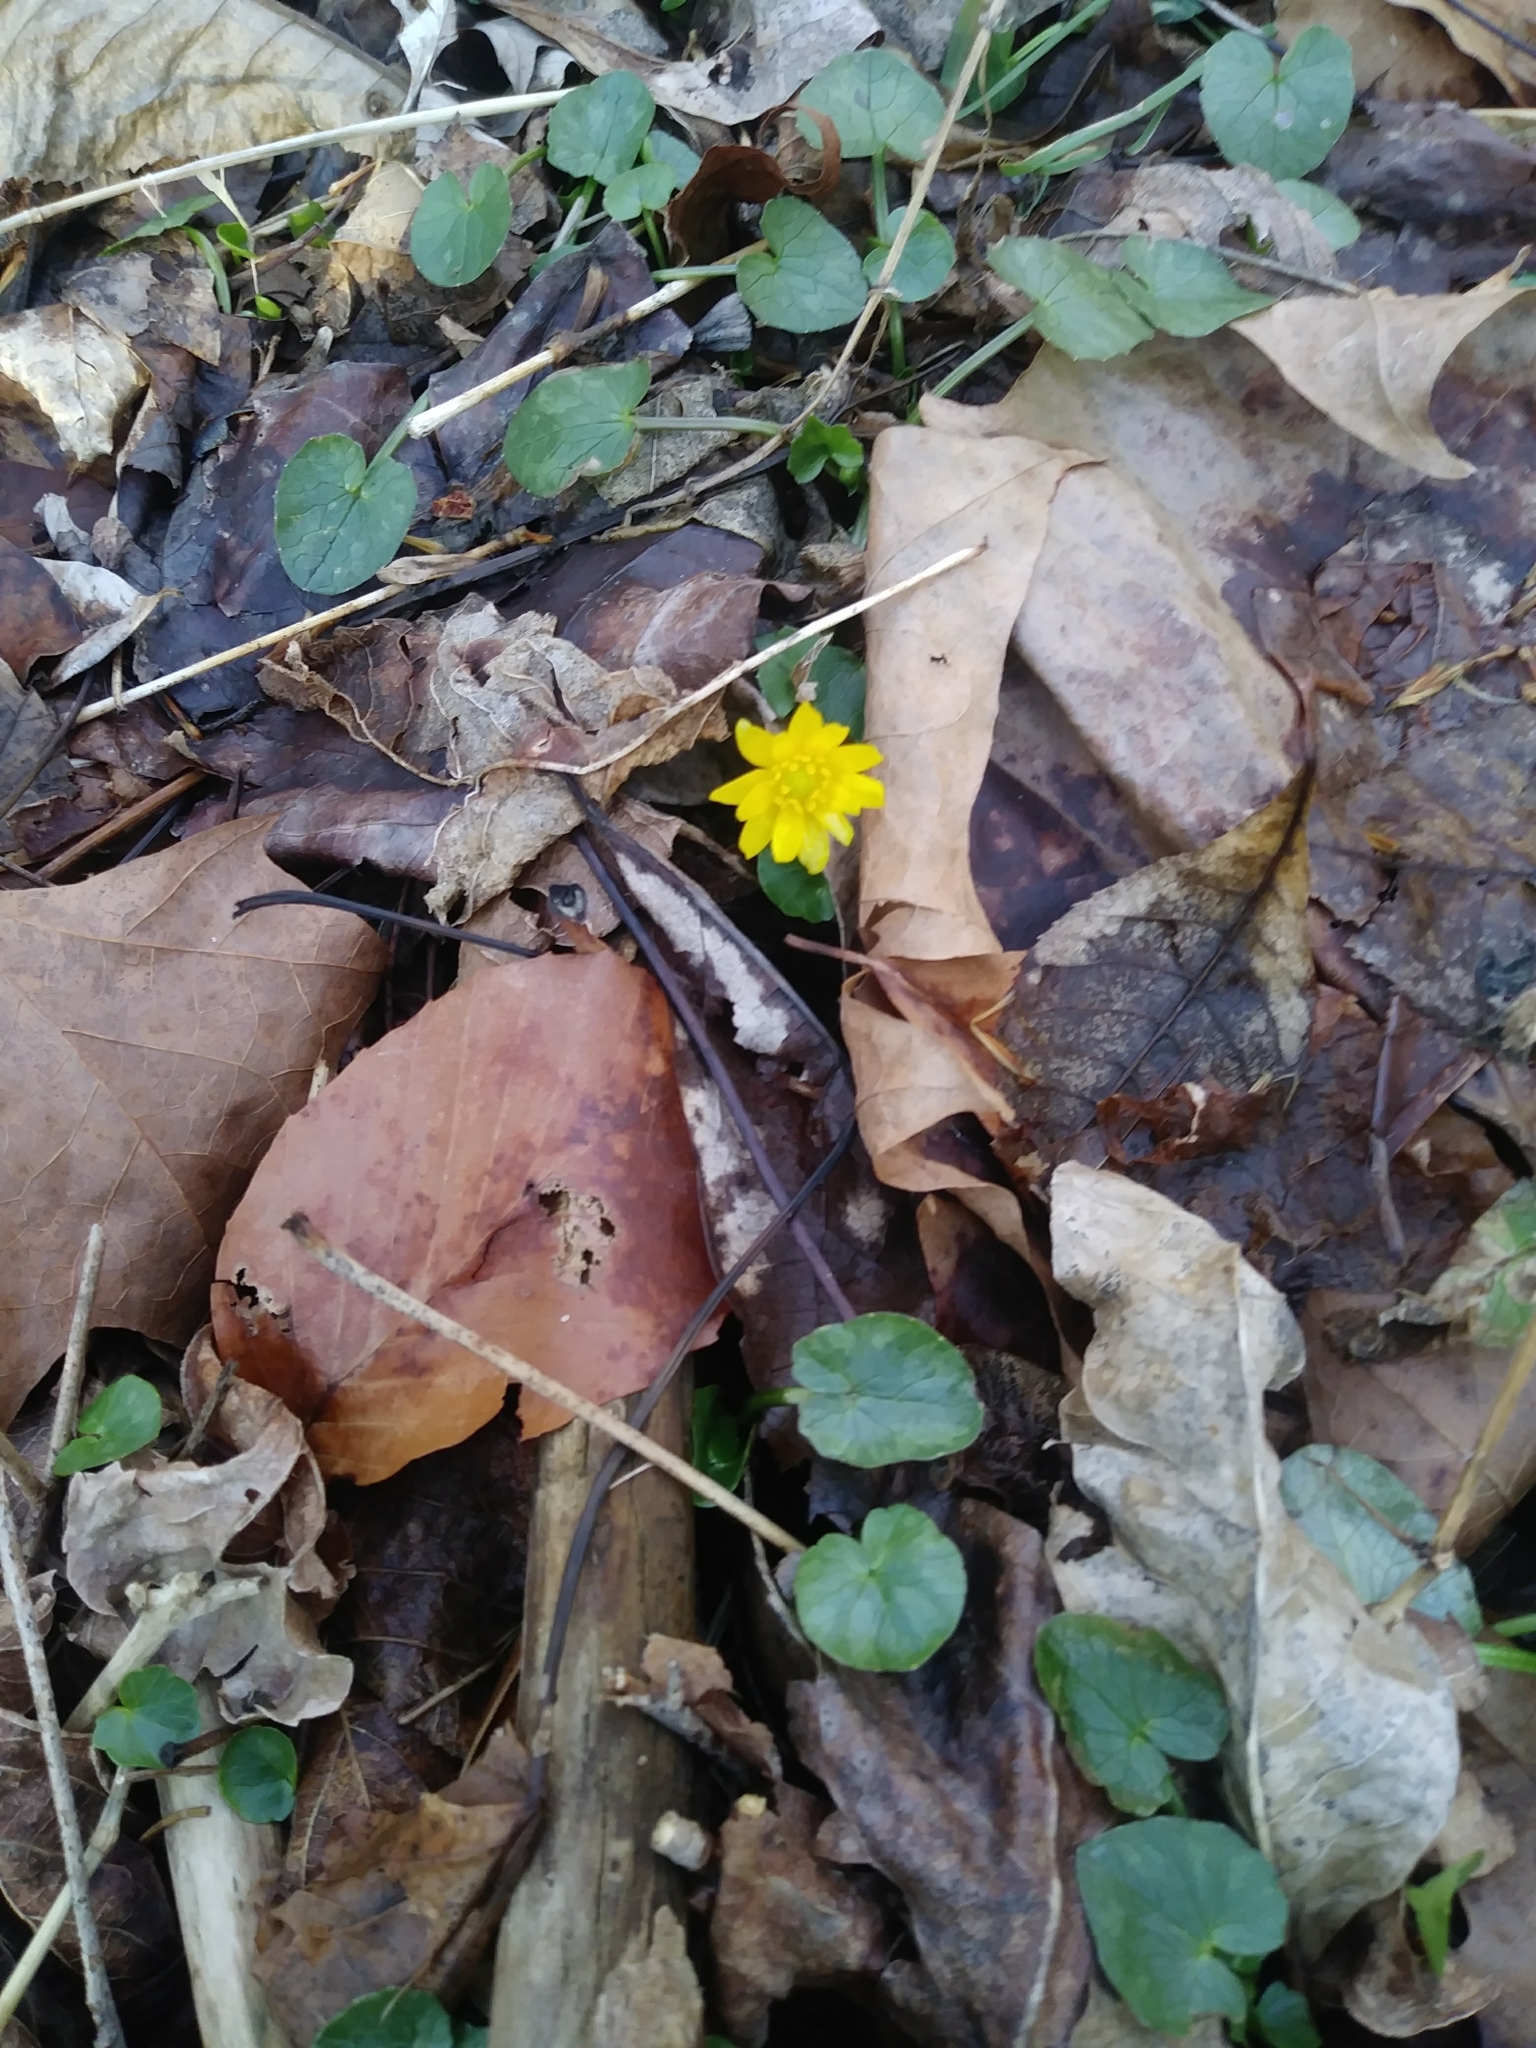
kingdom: Plantae
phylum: Tracheophyta
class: Magnoliopsida
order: Ranunculales
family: Ranunculaceae
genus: Ficaria
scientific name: Ficaria verna
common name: Lesser celandine
